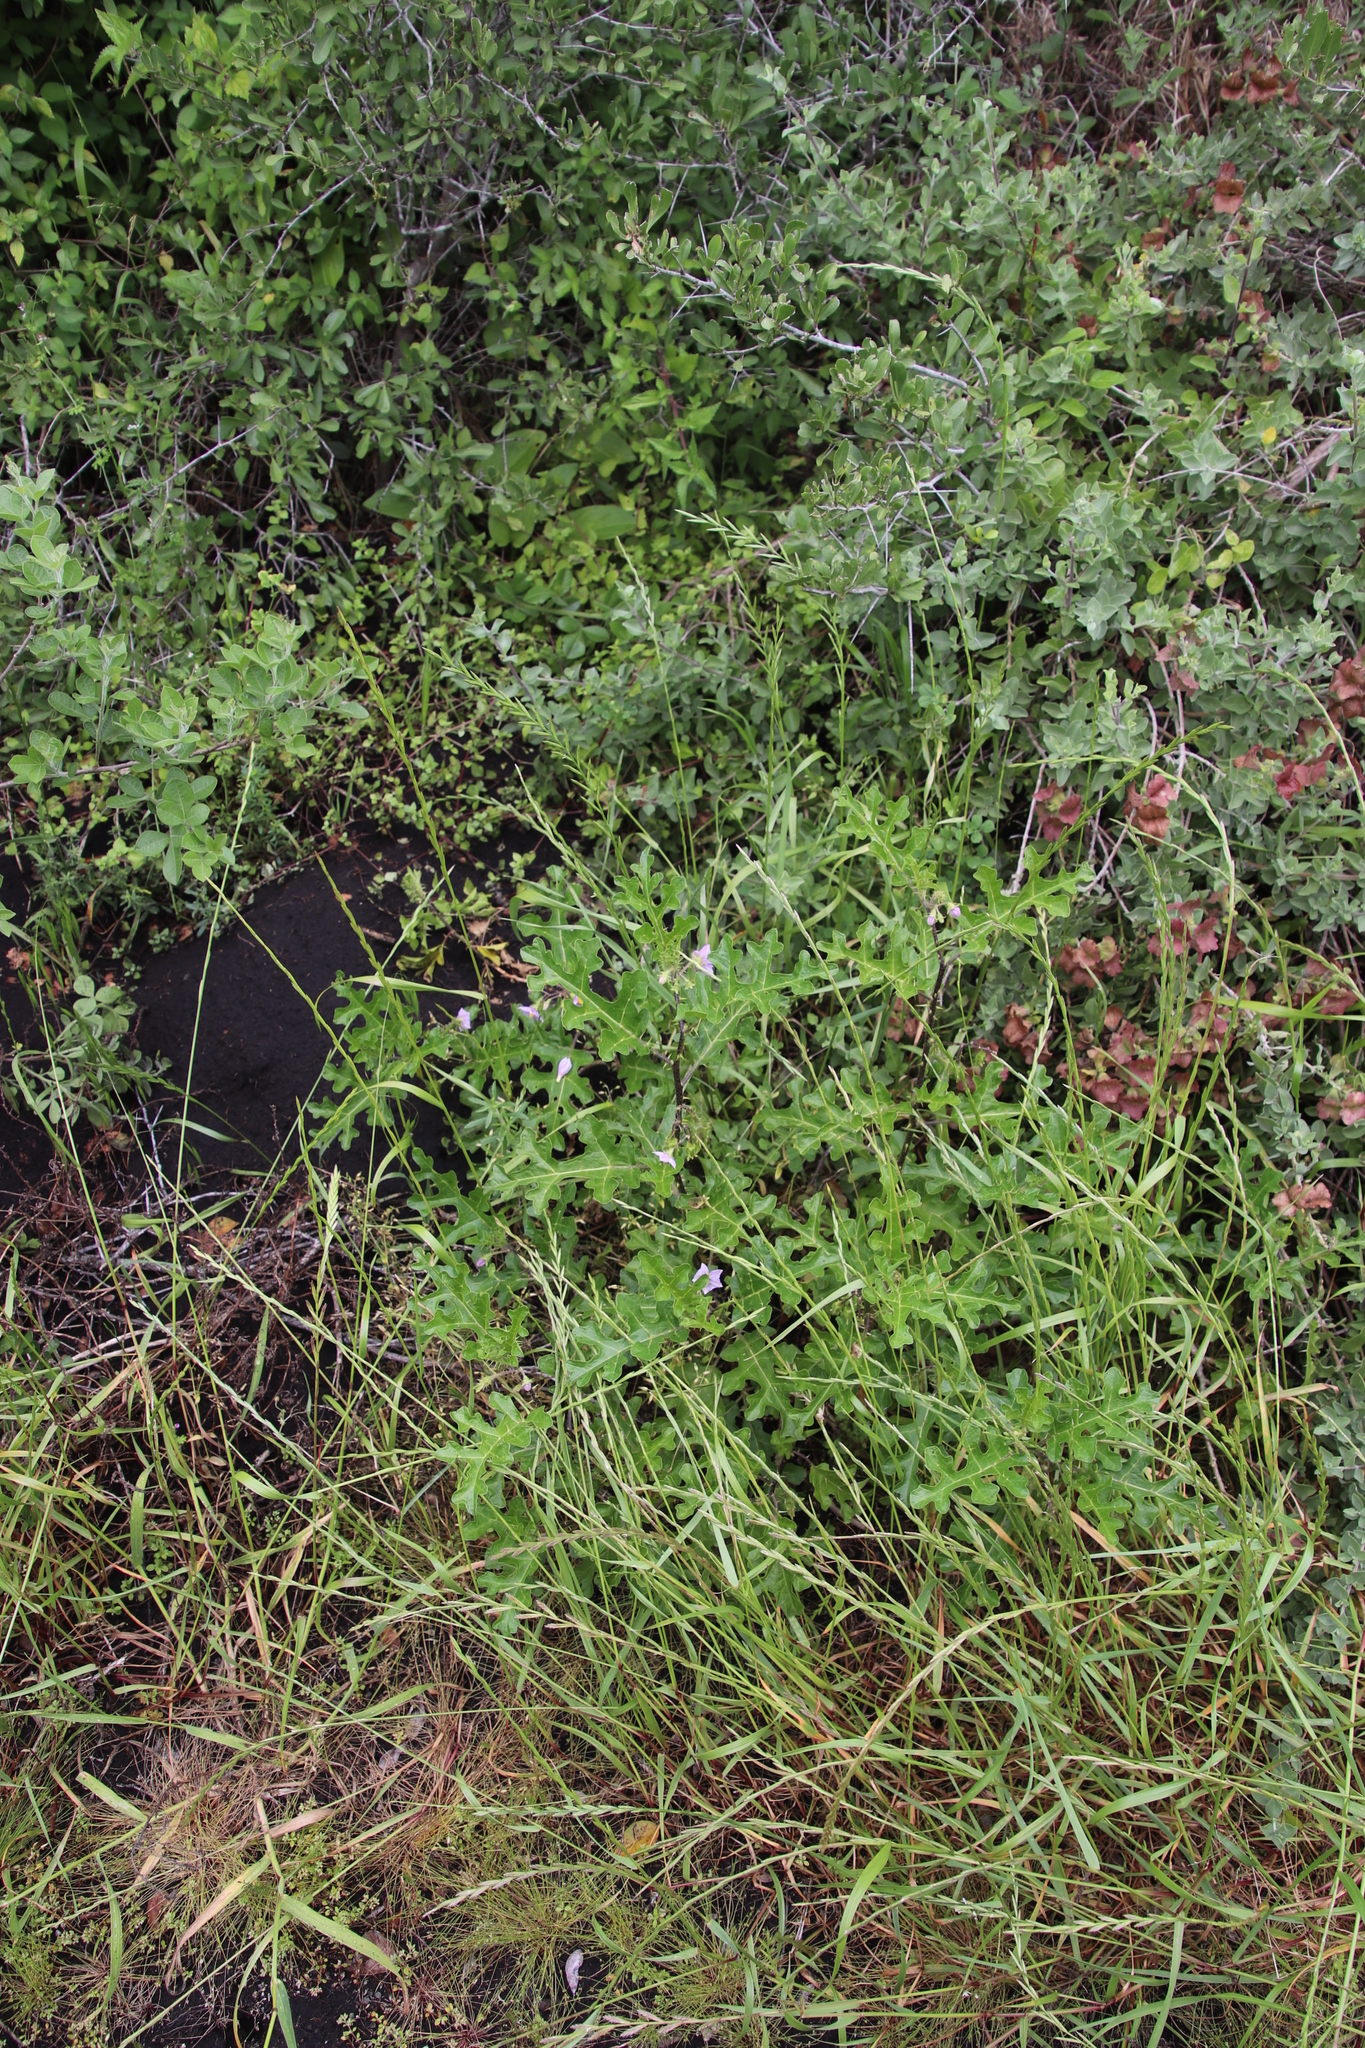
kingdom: Plantae
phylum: Tracheophyta
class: Magnoliopsida
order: Solanales
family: Solanaceae
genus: Solanum
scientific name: Solanum linnaeanum
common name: Nightshade
